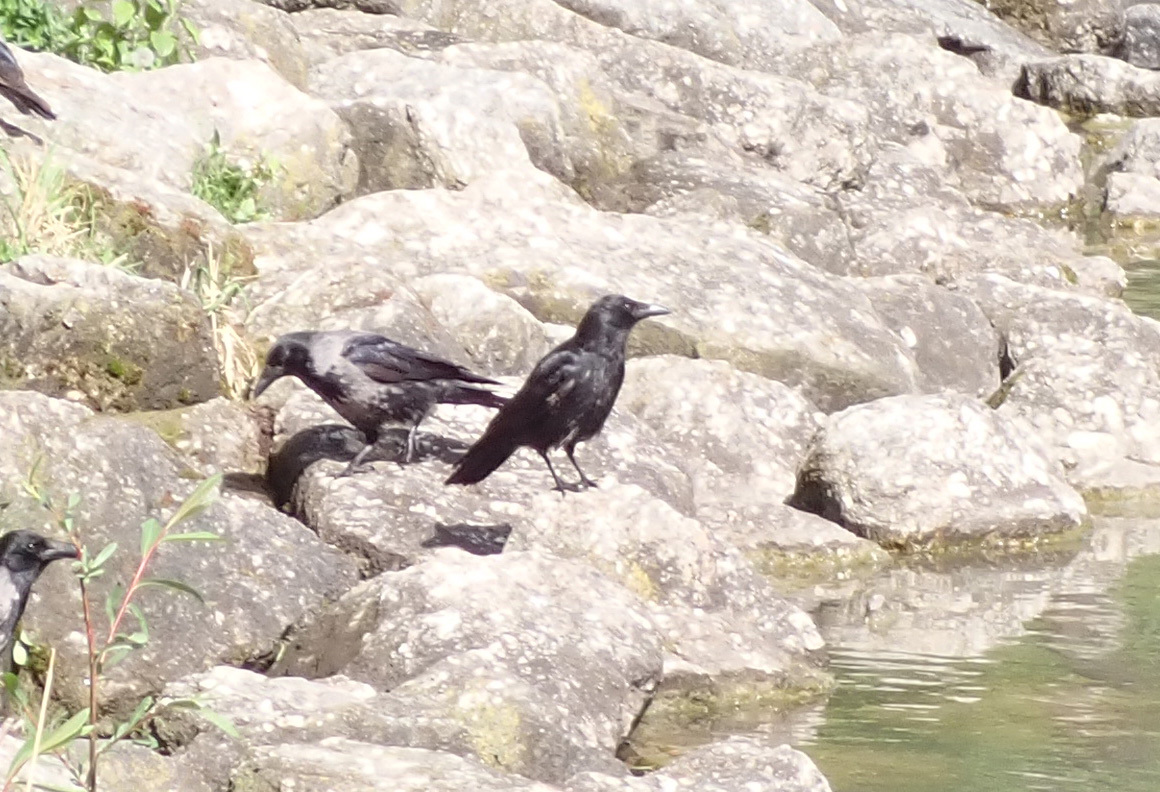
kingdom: Animalia
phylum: Chordata
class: Aves
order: Passeriformes
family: Corvidae
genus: Corvus
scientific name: Corvus
